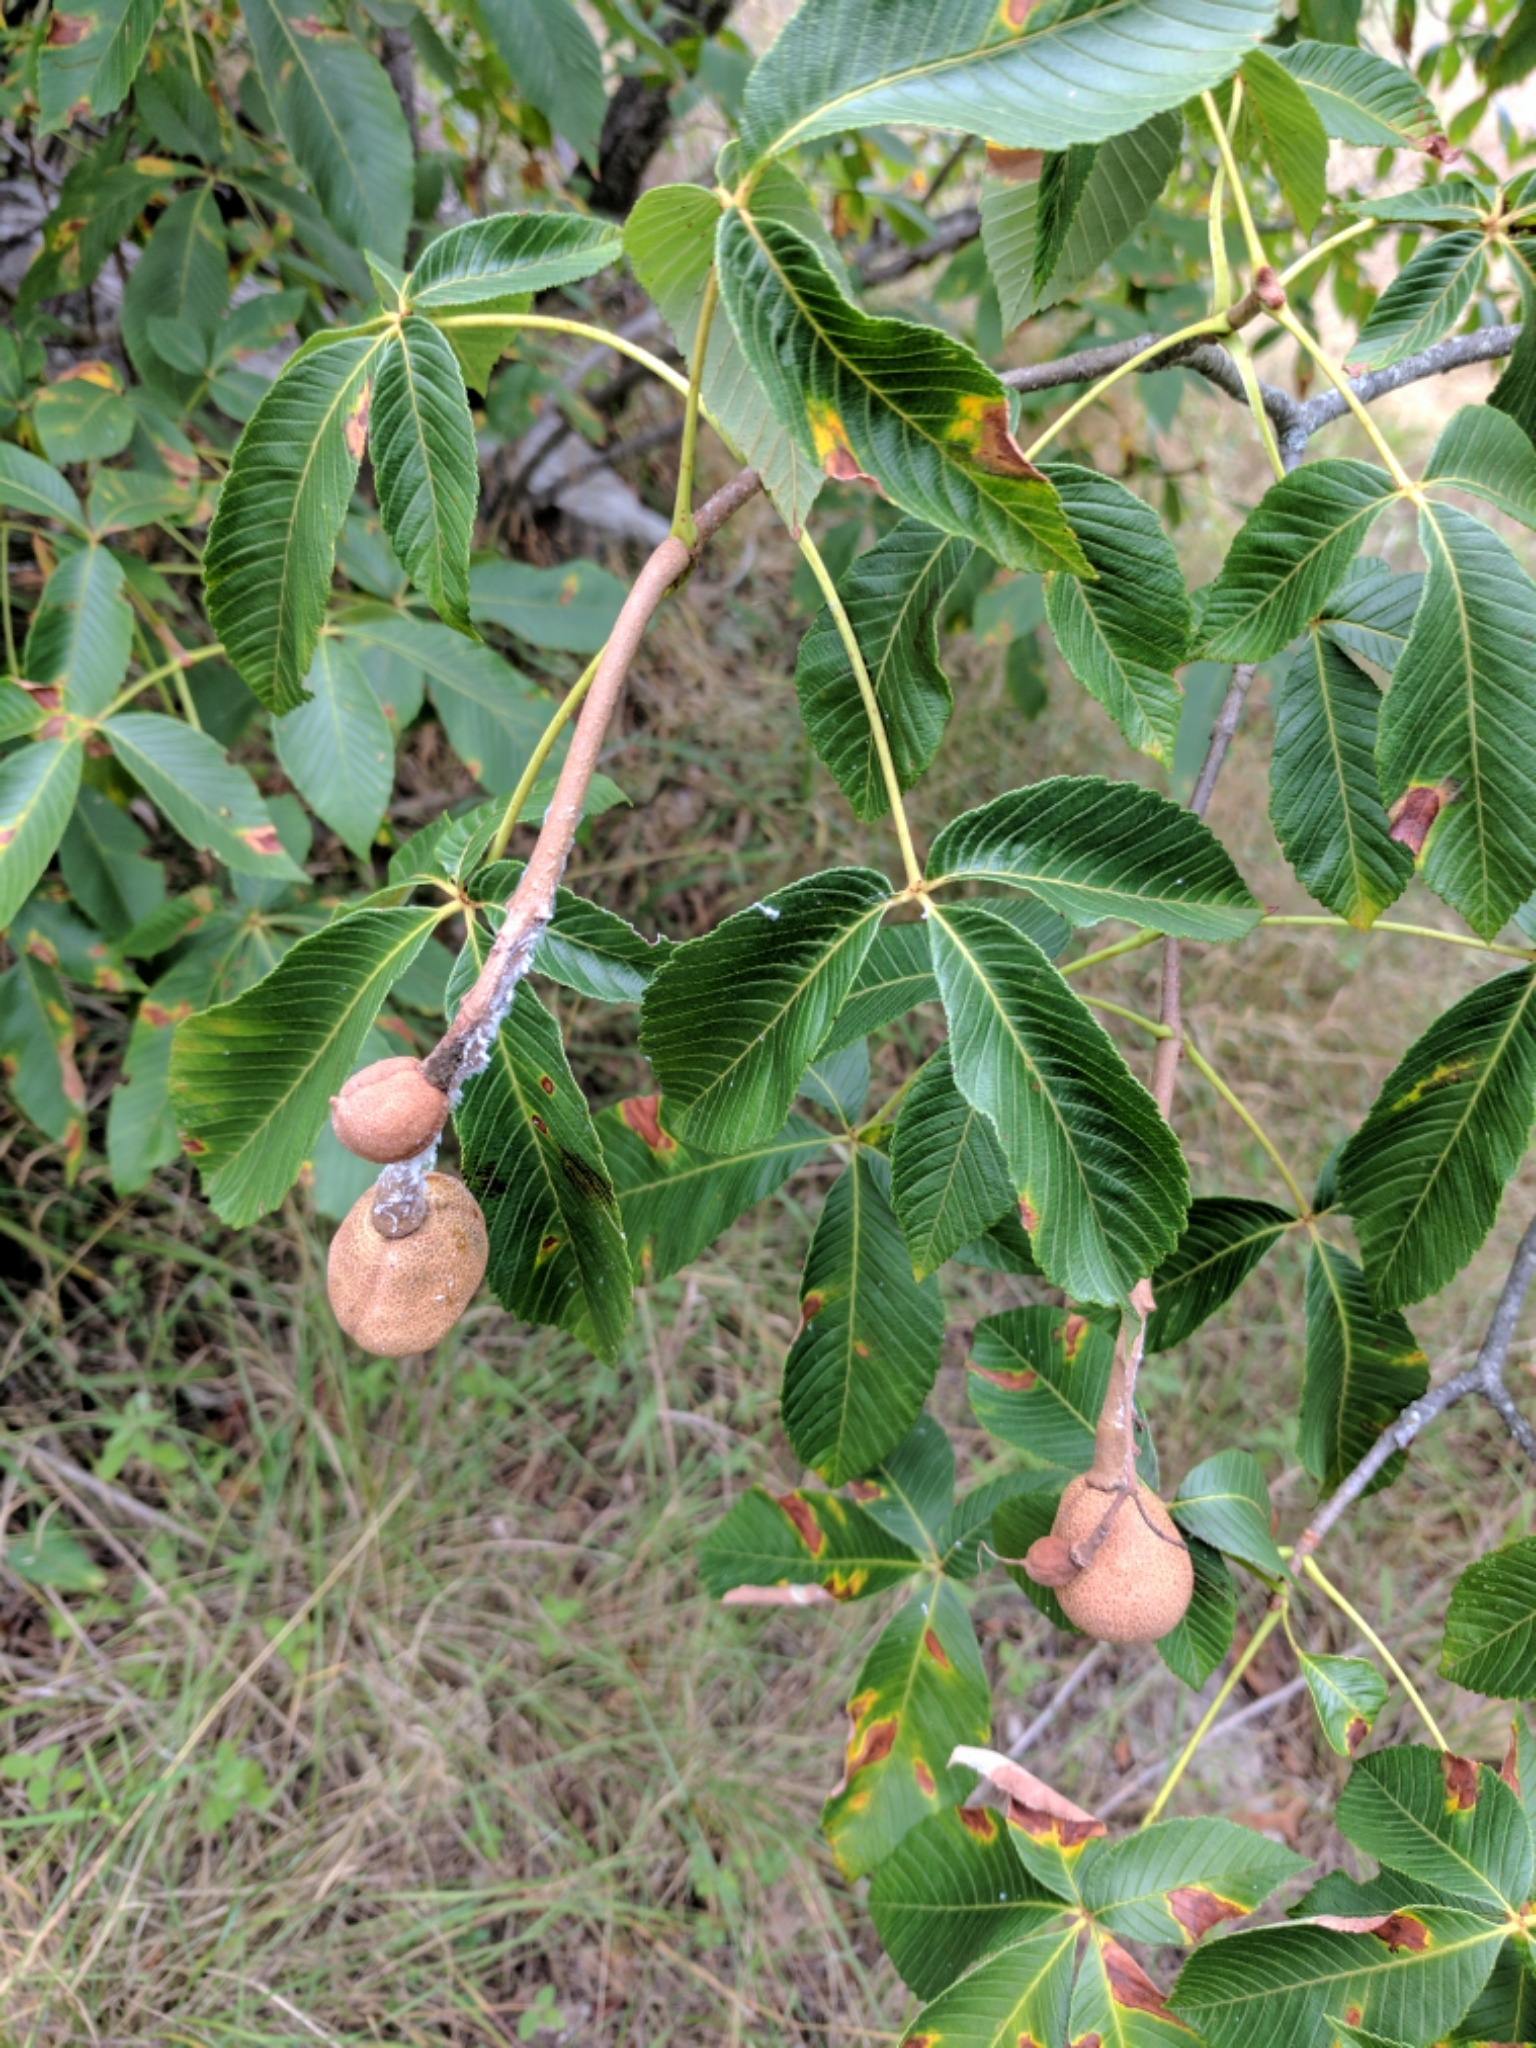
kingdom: Plantae
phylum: Tracheophyta
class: Magnoliopsida
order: Sapindales
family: Sapindaceae
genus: Aesculus
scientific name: Aesculus pavia
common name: Red buckeye
